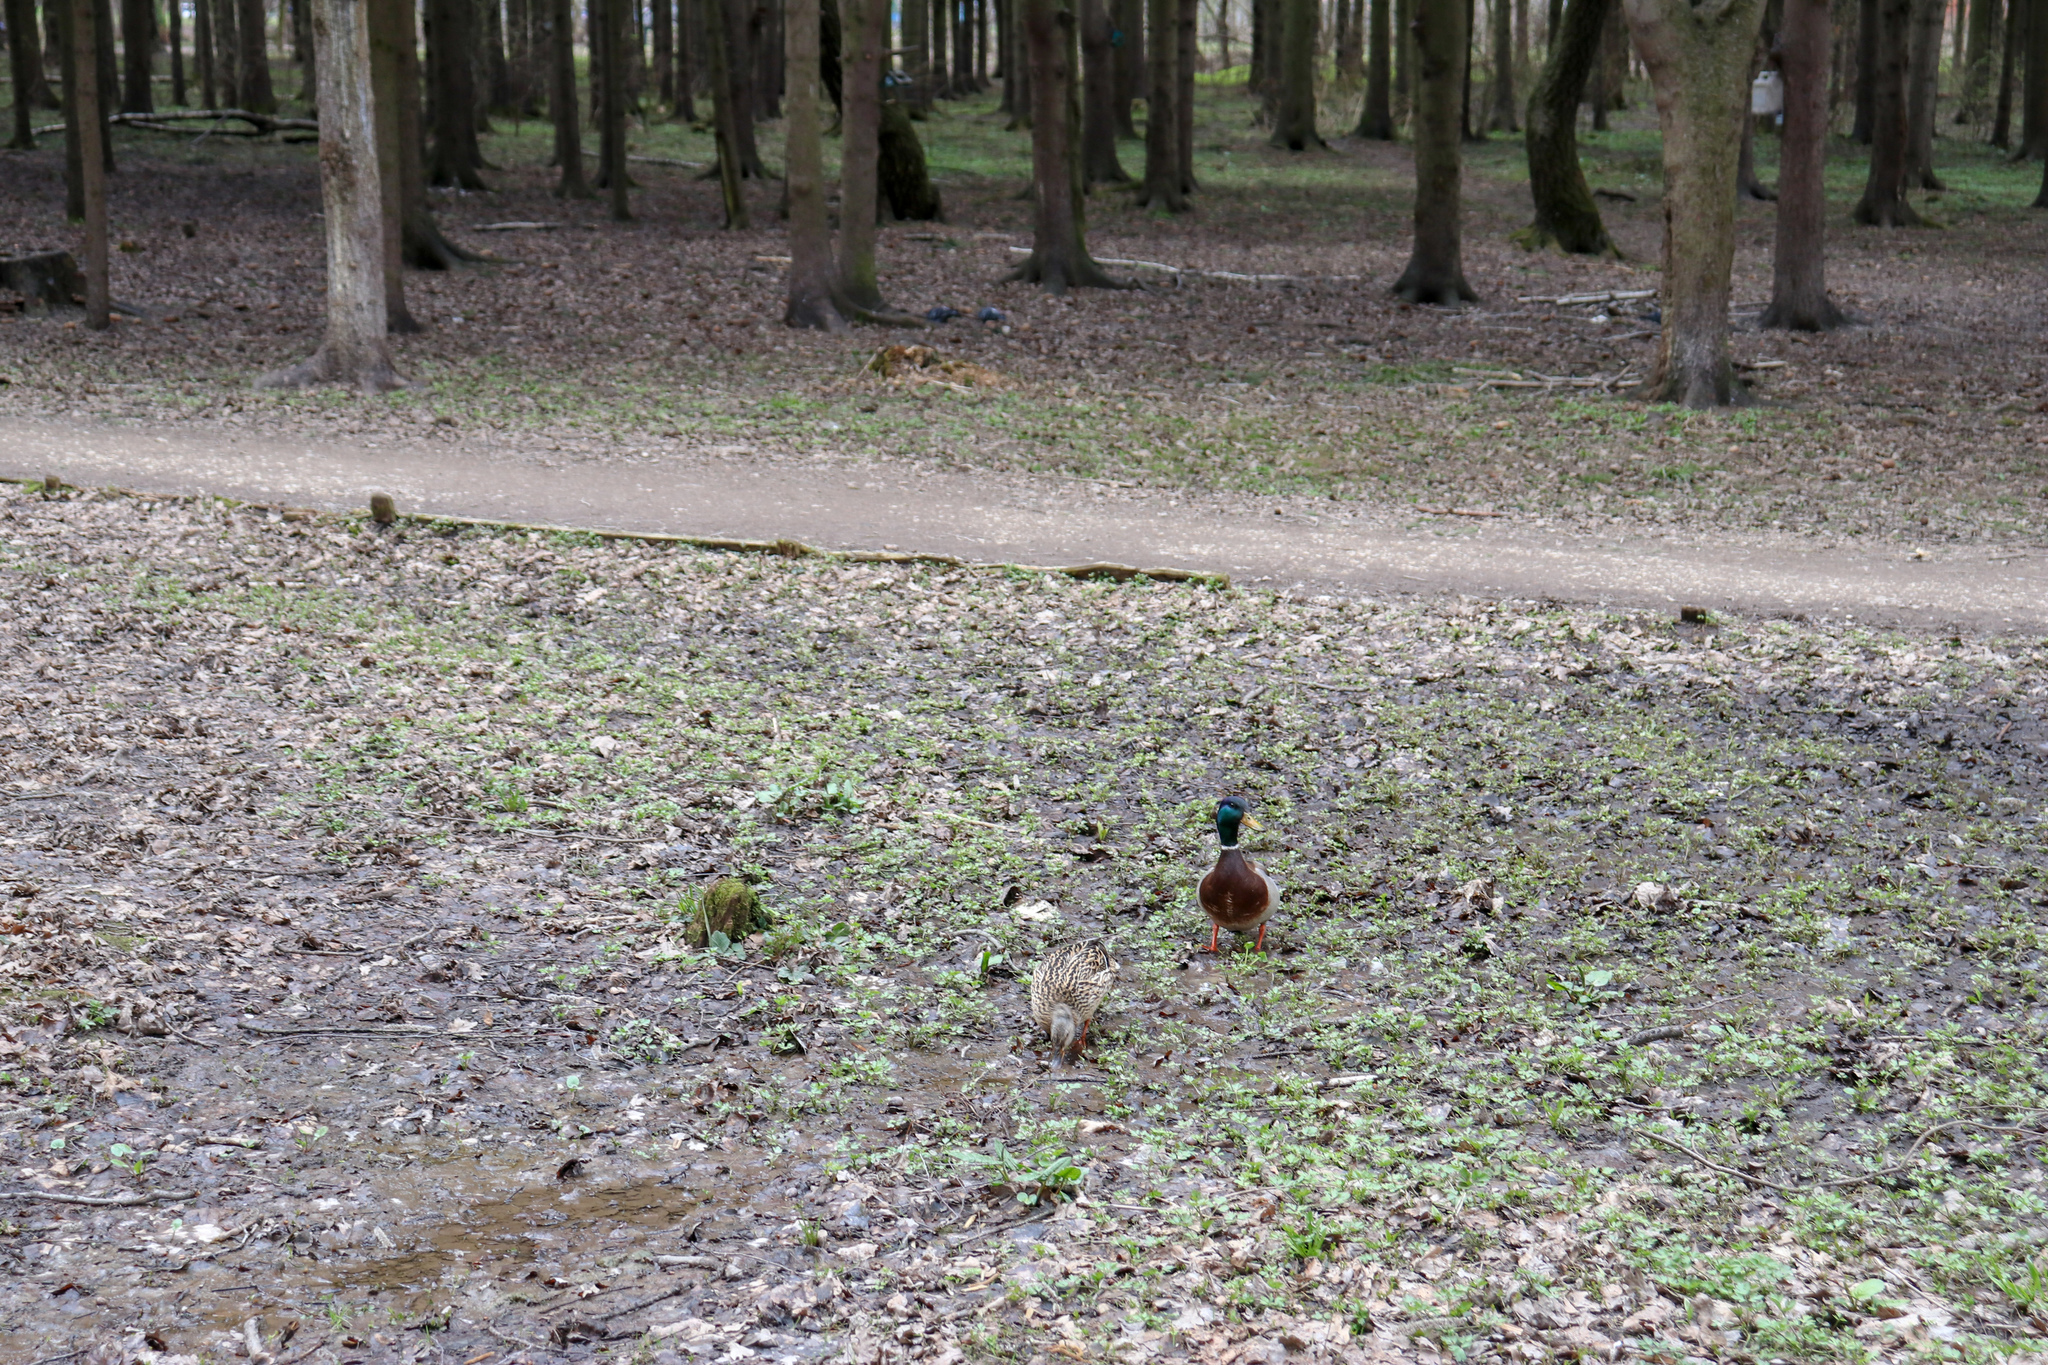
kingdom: Animalia
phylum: Chordata
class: Aves
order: Anseriformes
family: Anatidae
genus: Anas
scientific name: Anas platyrhynchos
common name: Mallard
